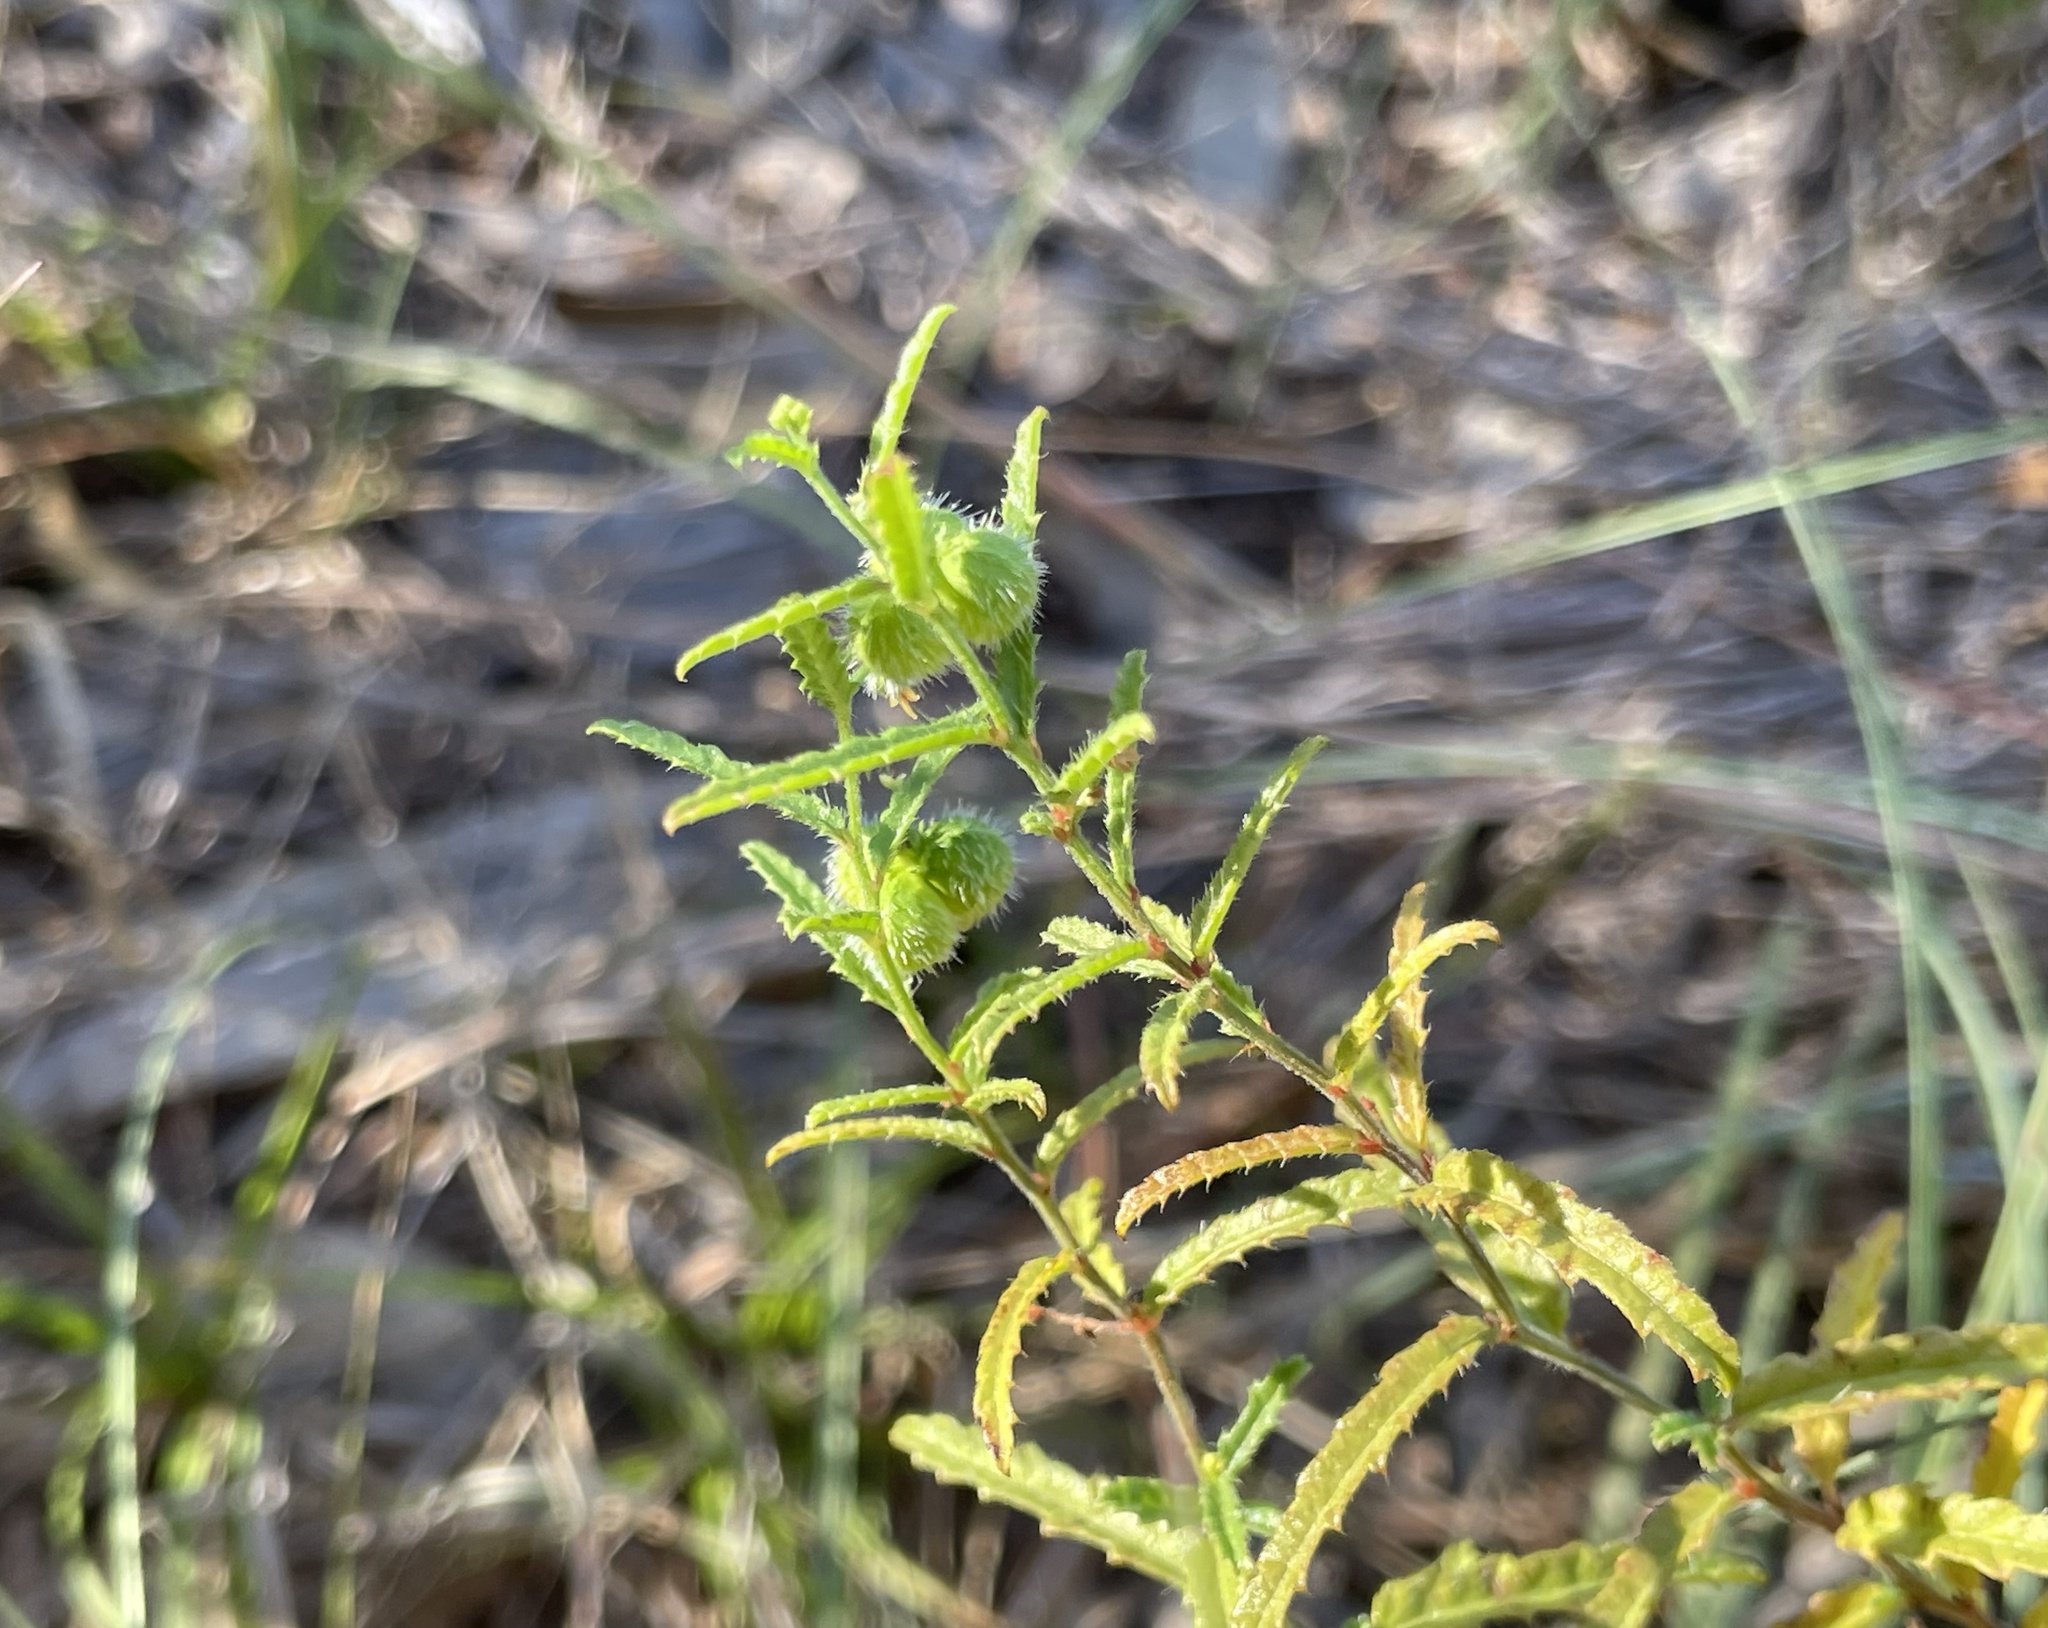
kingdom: Plantae
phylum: Tracheophyta
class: Magnoliopsida
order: Malpighiales
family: Euphorbiaceae
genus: Tragia
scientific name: Tragia ramosa
